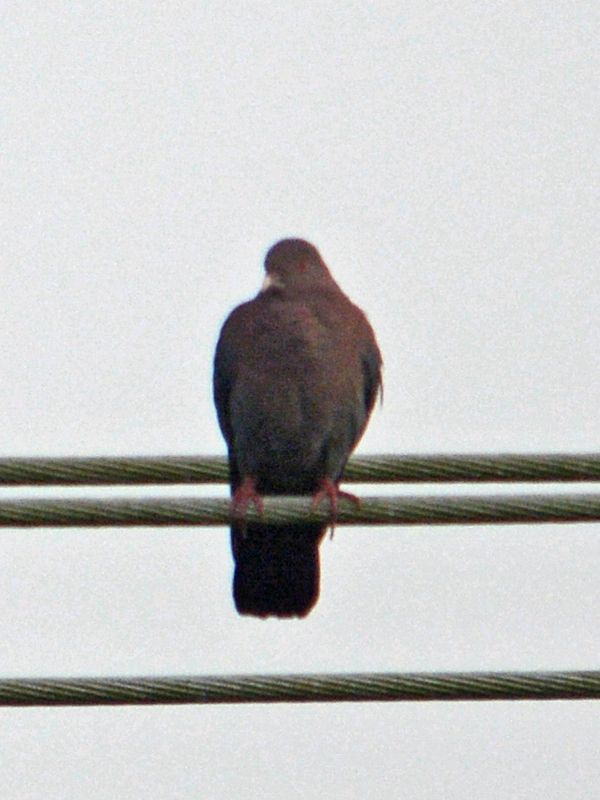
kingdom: Animalia
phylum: Chordata
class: Aves
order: Columbiformes
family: Columbidae
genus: Patagioenas
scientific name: Patagioenas flavirostris
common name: Red-billed pigeon
